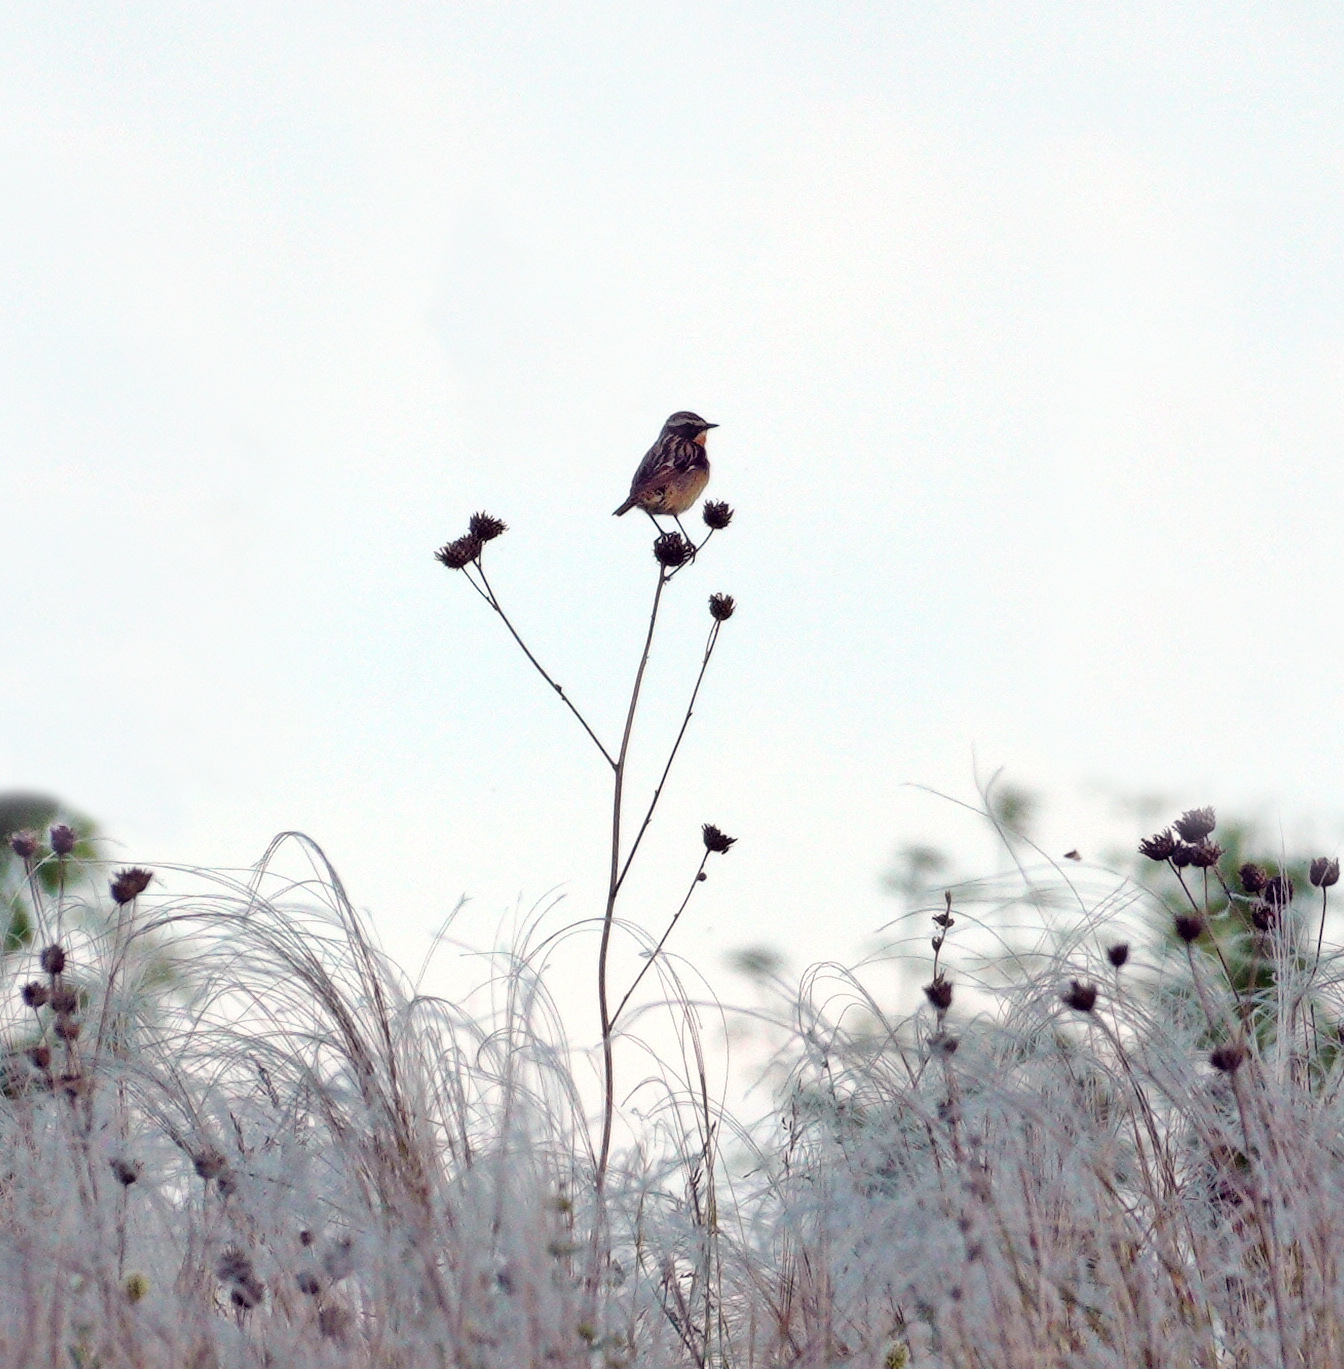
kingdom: Animalia
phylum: Chordata
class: Aves
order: Passeriformes
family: Muscicapidae
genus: Saxicola
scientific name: Saxicola rubetra
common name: Whinchat
